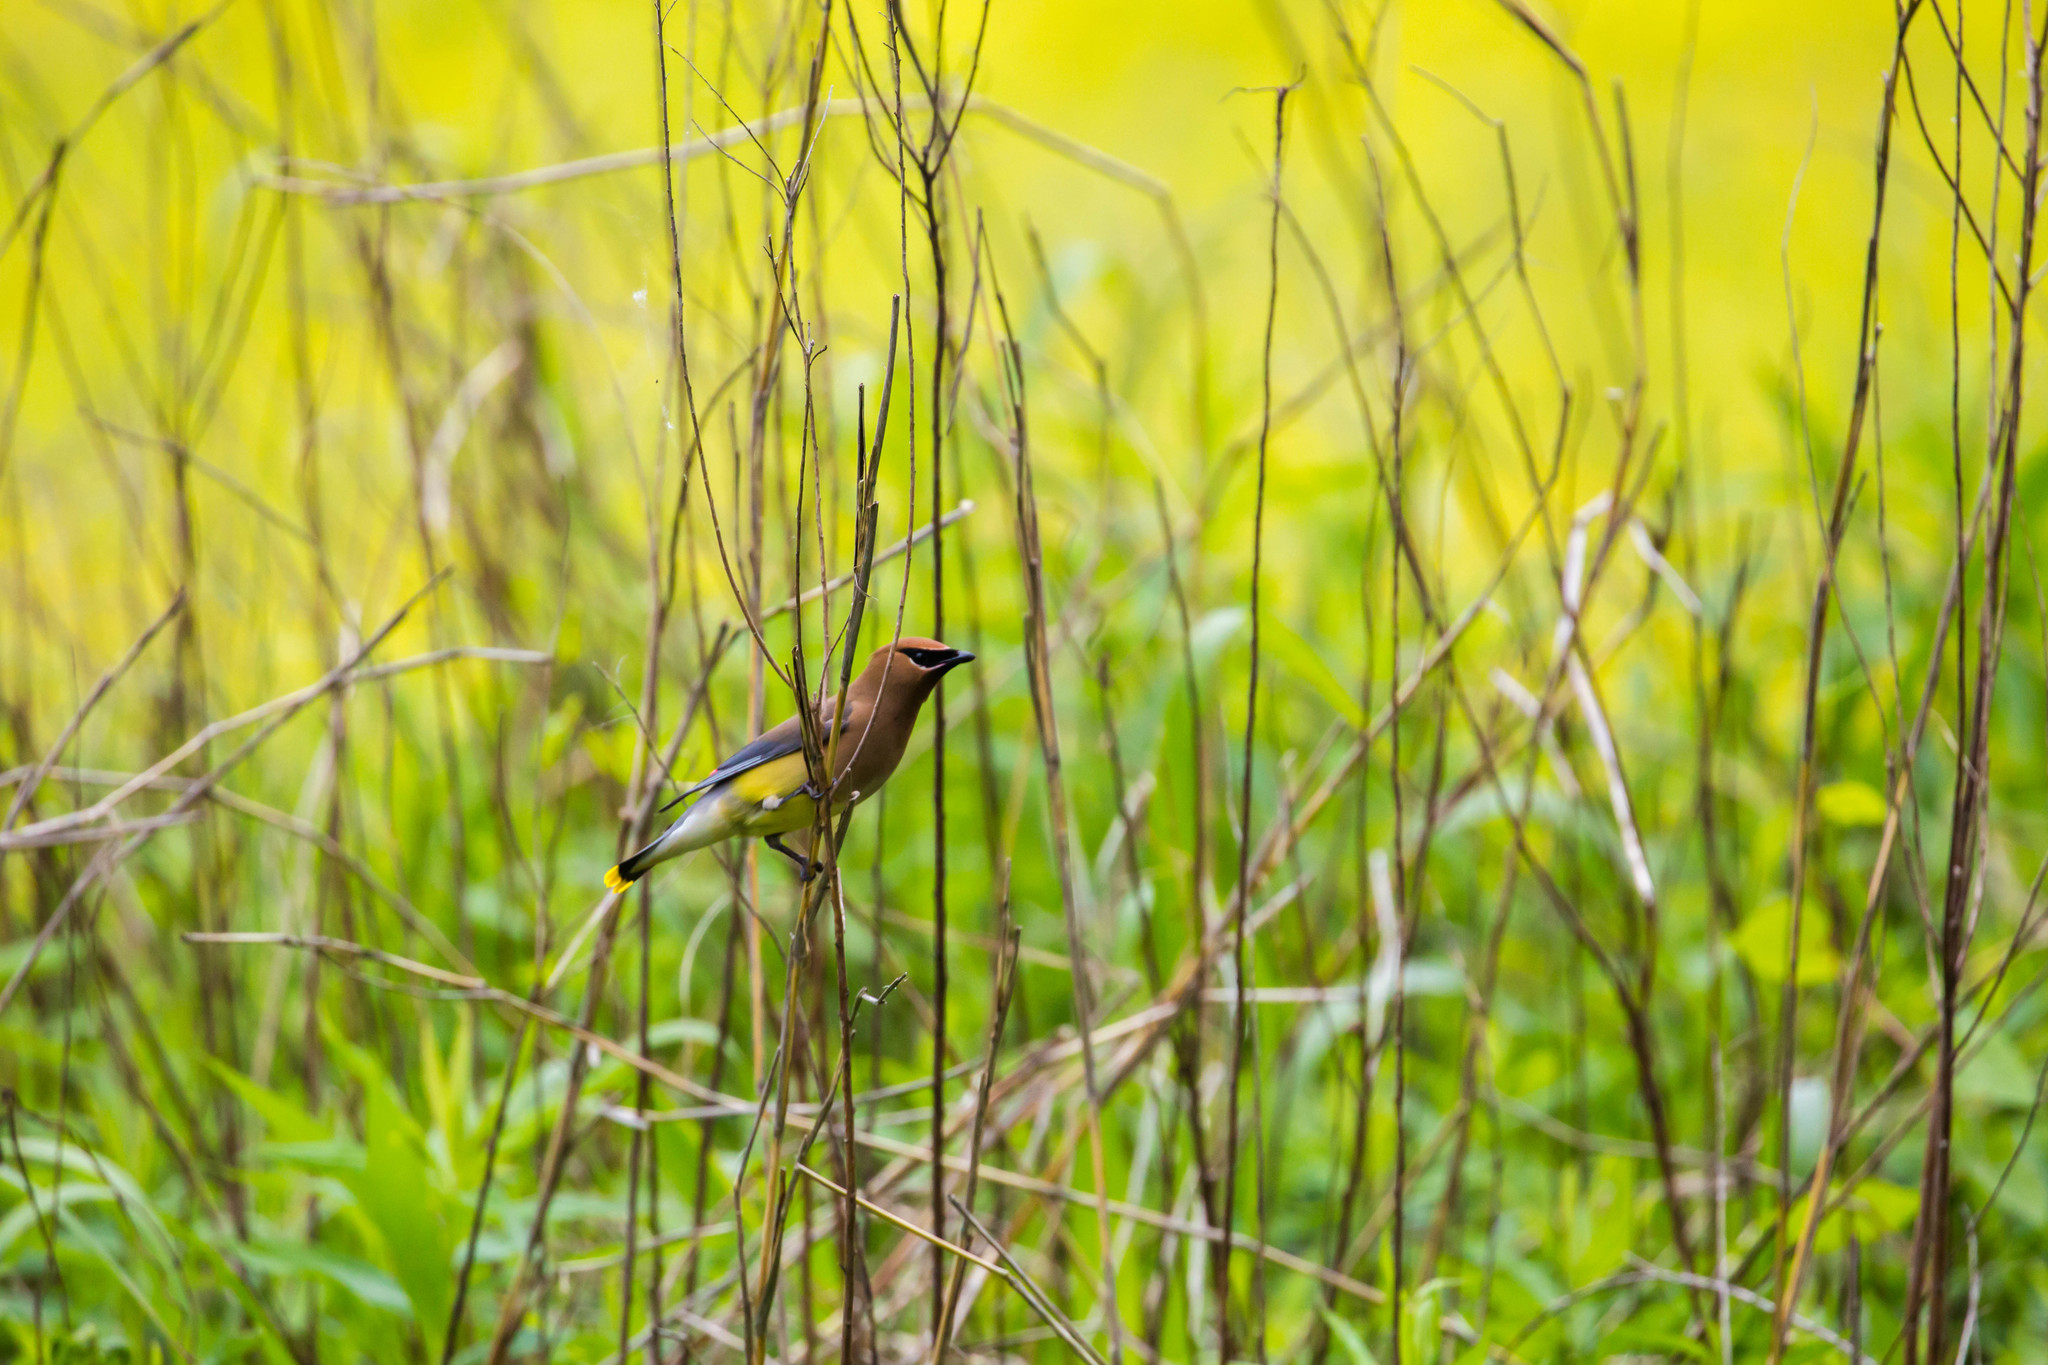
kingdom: Animalia
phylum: Chordata
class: Aves
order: Passeriformes
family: Bombycillidae
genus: Bombycilla
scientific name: Bombycilla cedrorum
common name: Cedar waxwing
